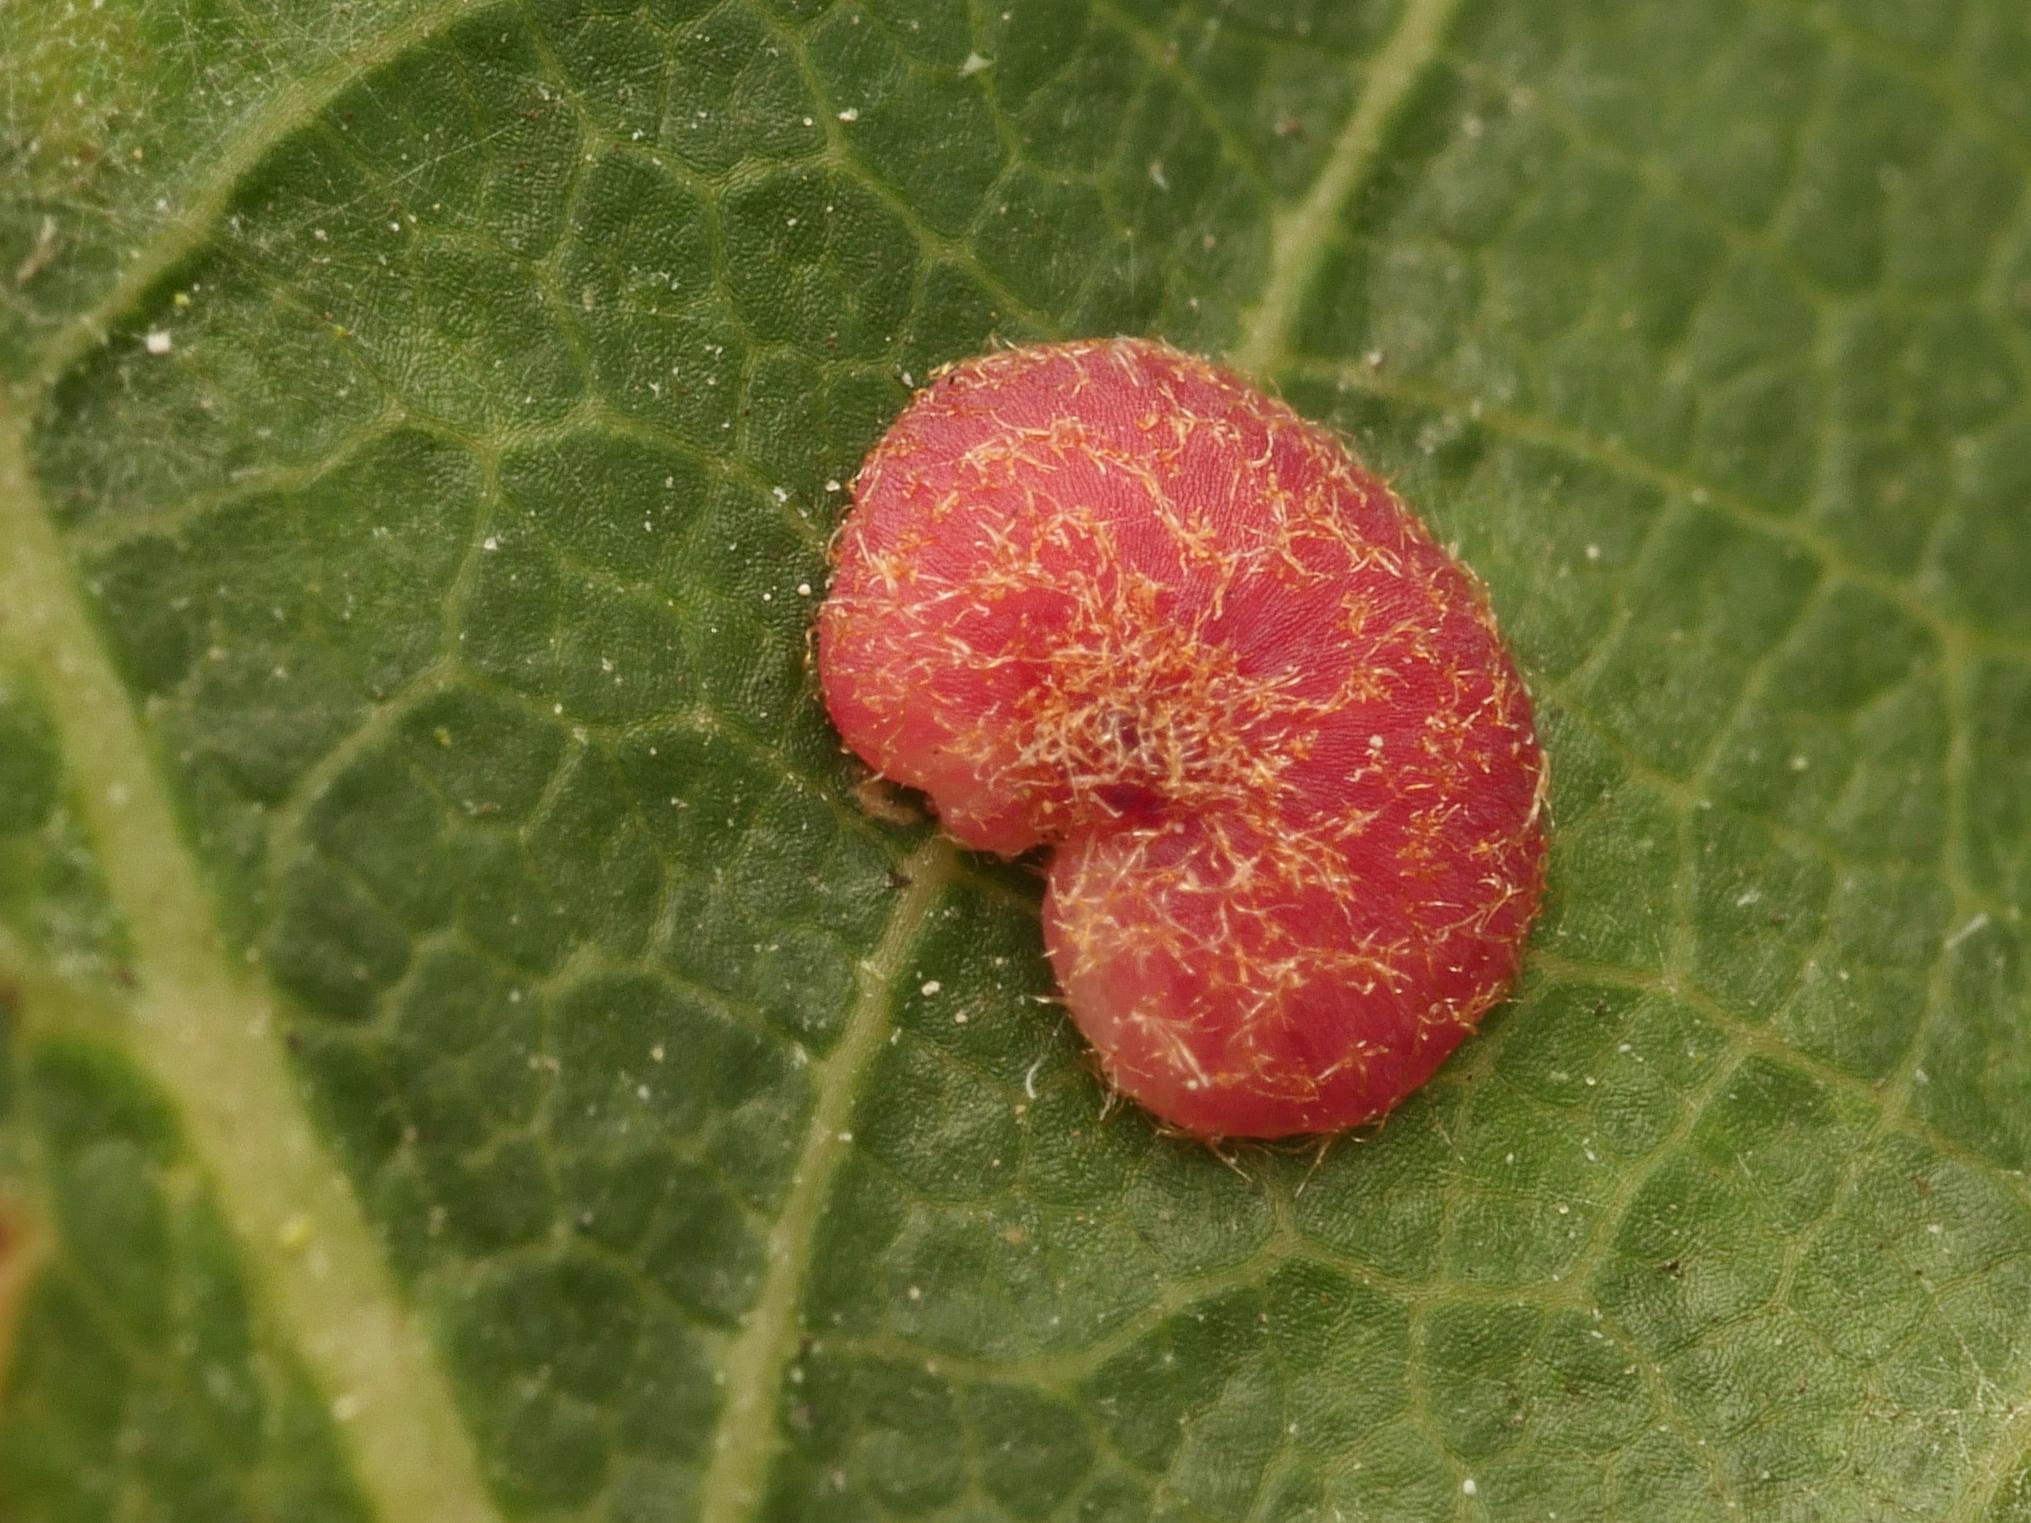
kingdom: Animalia
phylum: Arthropoda
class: Insecta
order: Hymenoptera
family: Cynipidae
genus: Neuroterus
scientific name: Neuroterus quercusbaccarum
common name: Common spangle gall
